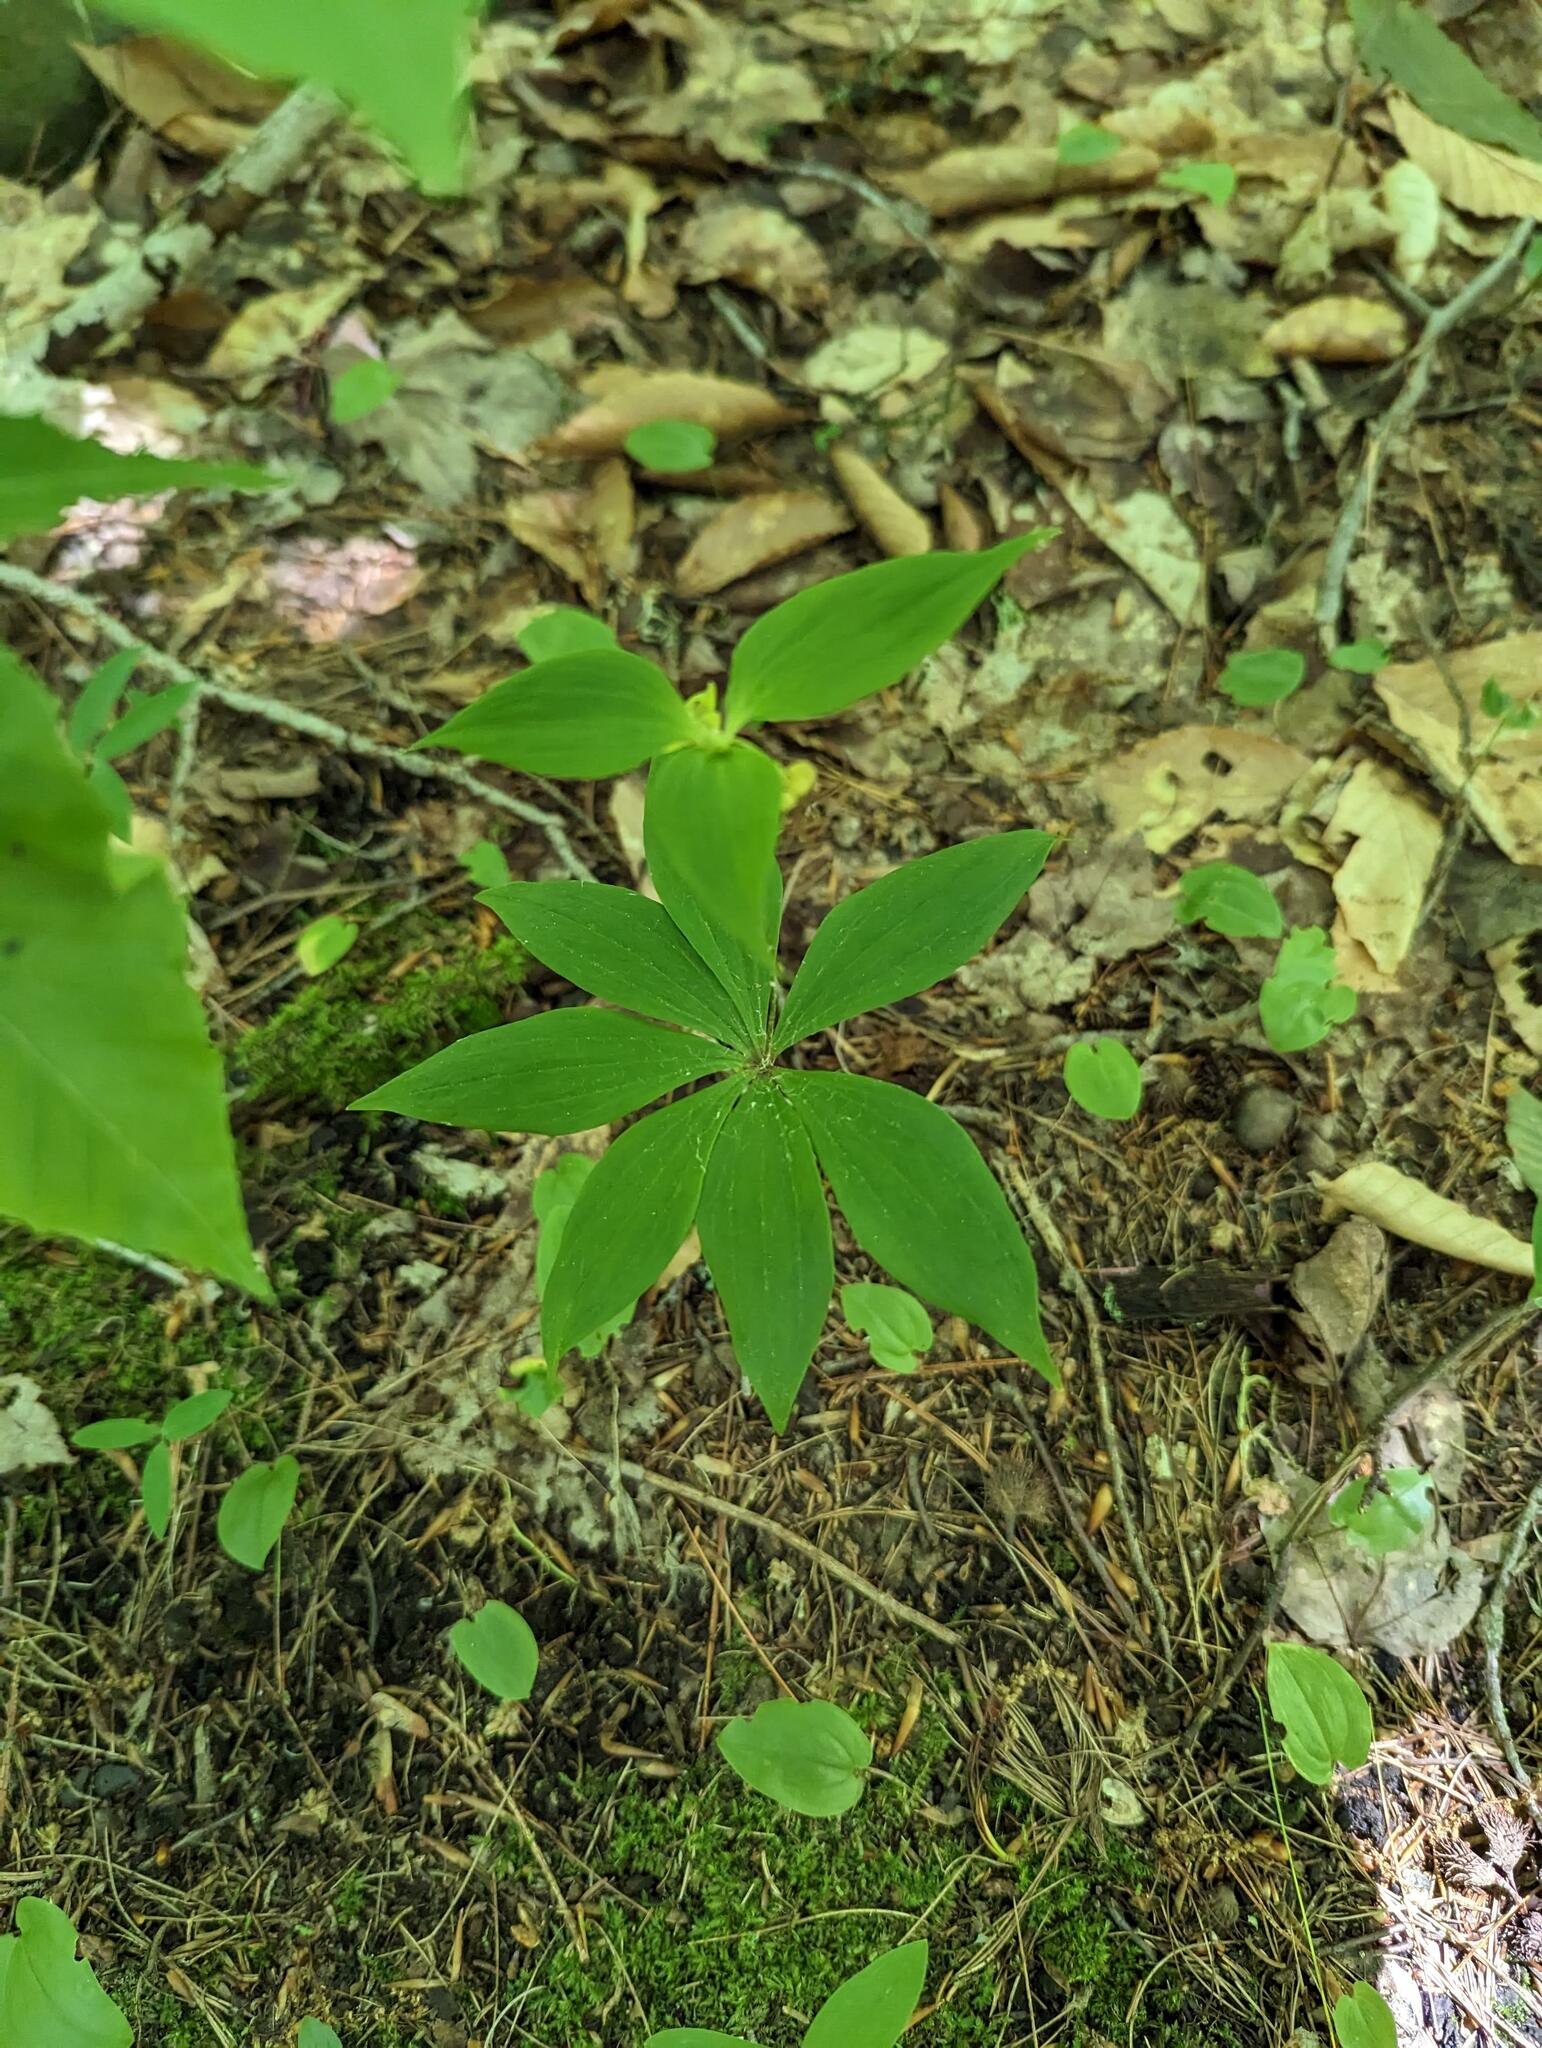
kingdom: Plantae
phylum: Tracheophyta
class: Liliopsida
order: Liliales
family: Liliaceae
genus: Medeola
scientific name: Medeola virginiana
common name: Indian cucumber-root
